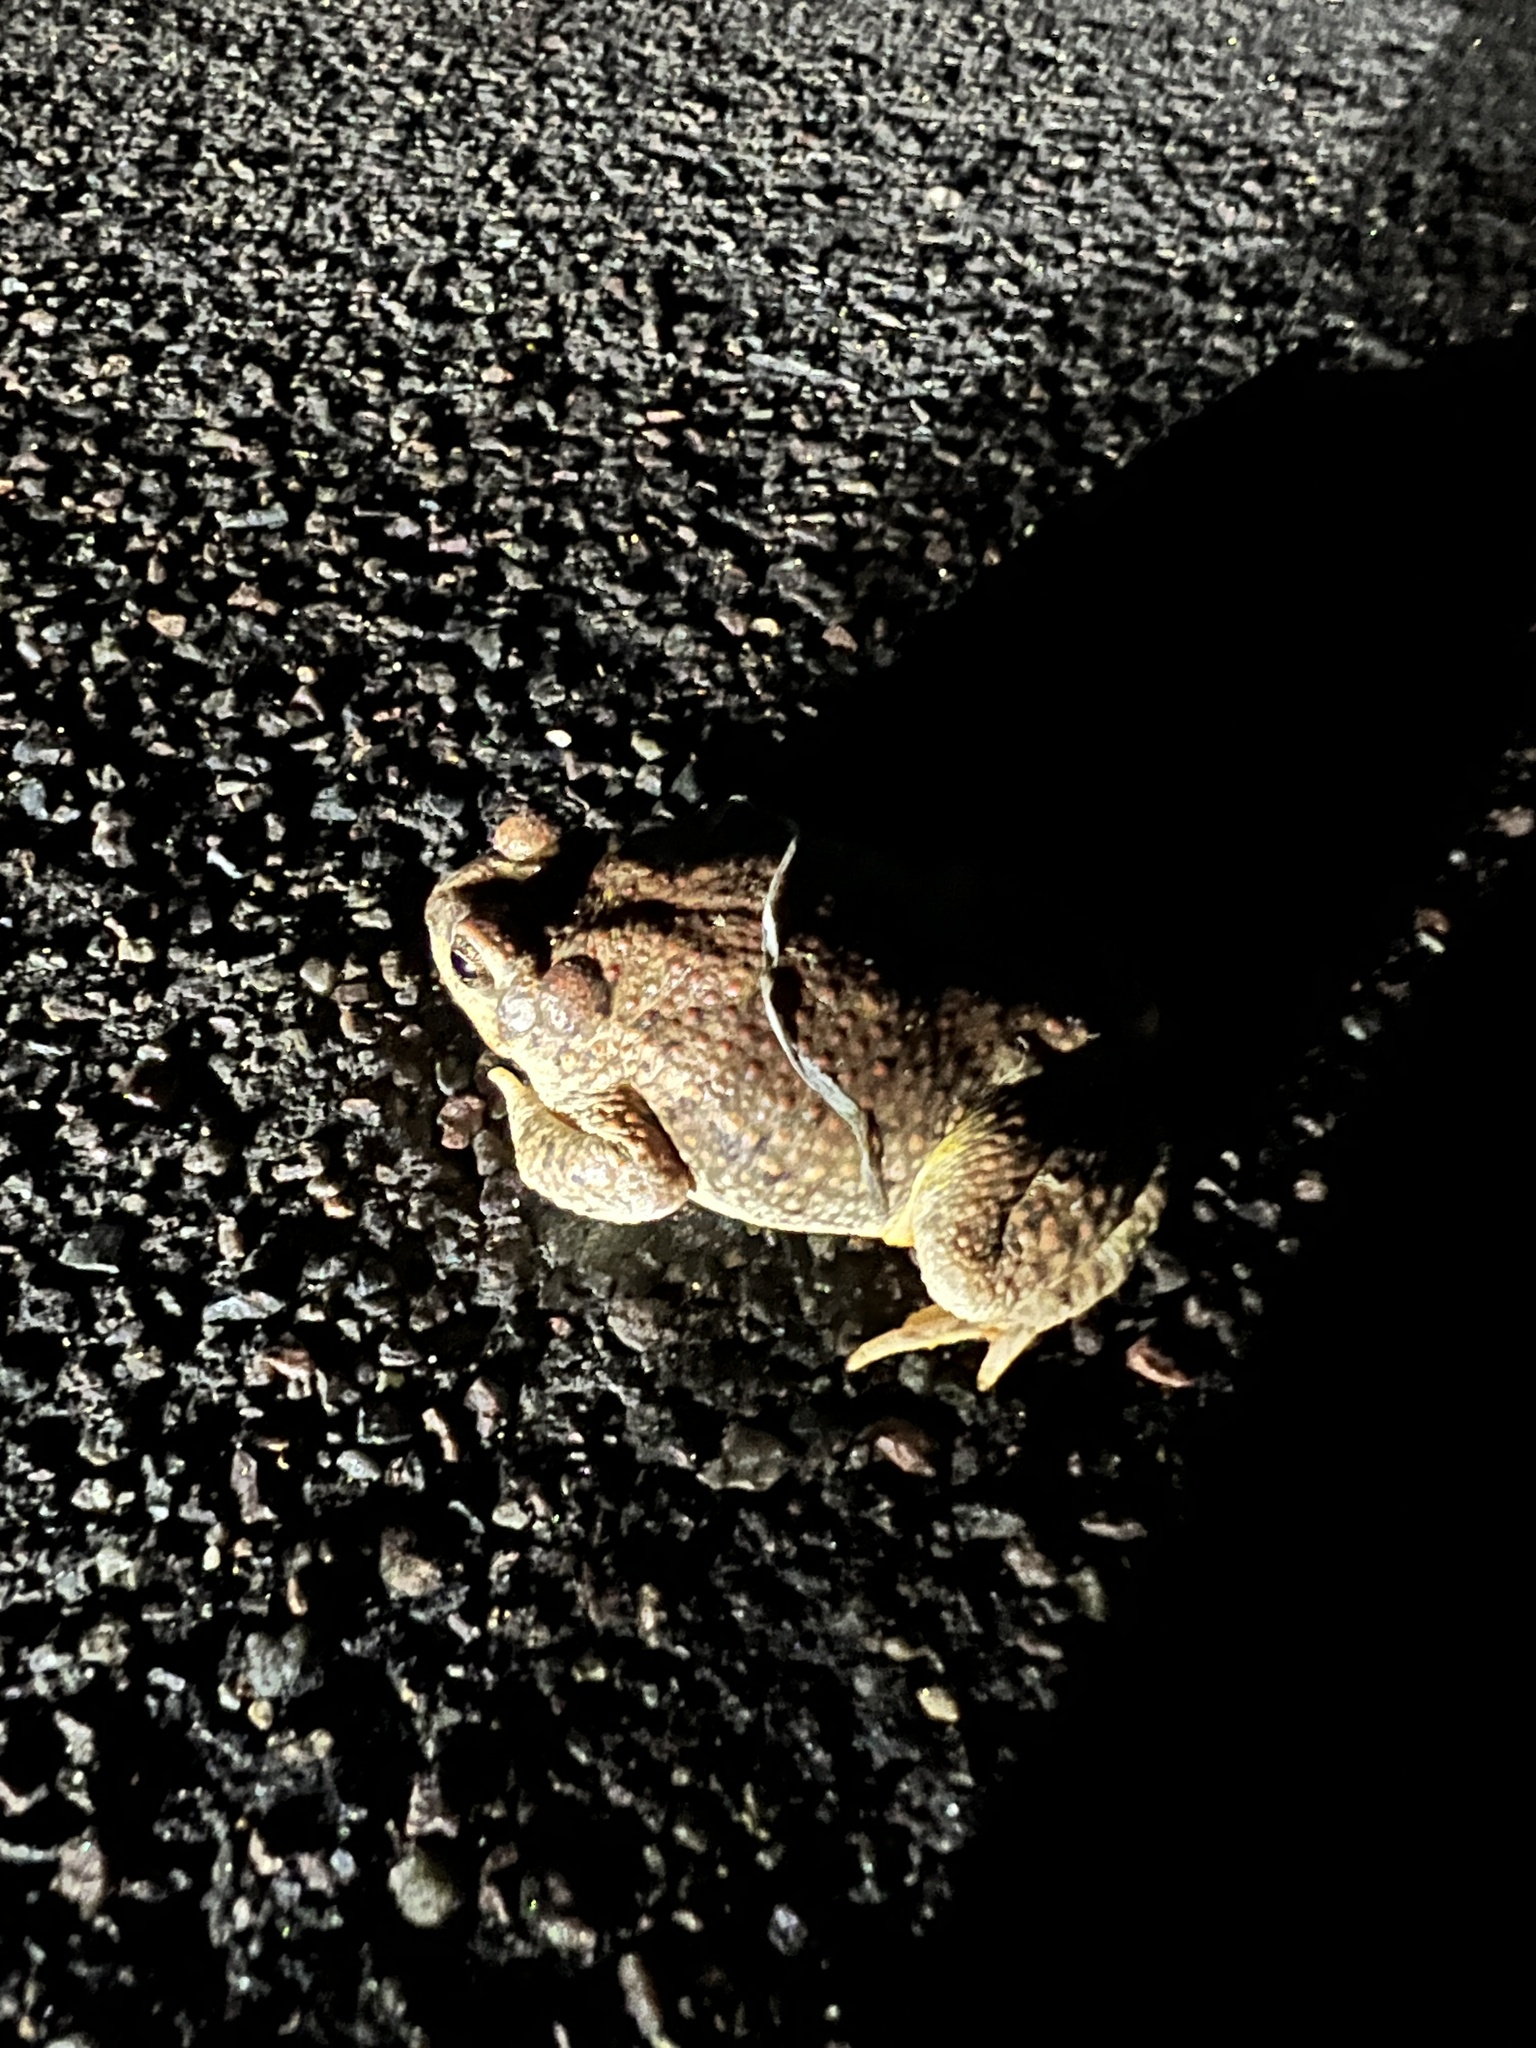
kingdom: Animalia
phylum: Chordata
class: Amphibia
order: Anura
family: Bufonidae
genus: Anaxyrus
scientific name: Anaxyrus punctatus
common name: Red-spotted toad
